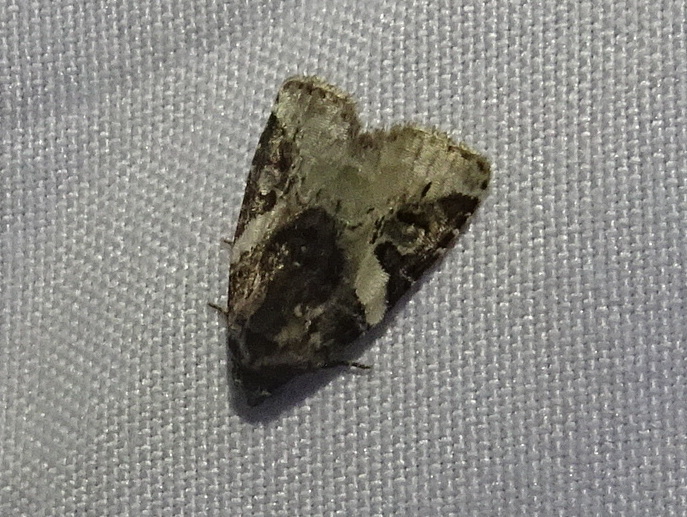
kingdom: Animalia
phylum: Arthropoda
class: Insecta
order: Lepidoptera
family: Noctuidae
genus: Pseudeustrotia
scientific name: Pseudeustrotia carneola
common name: Pink-barred lithacodia moth
